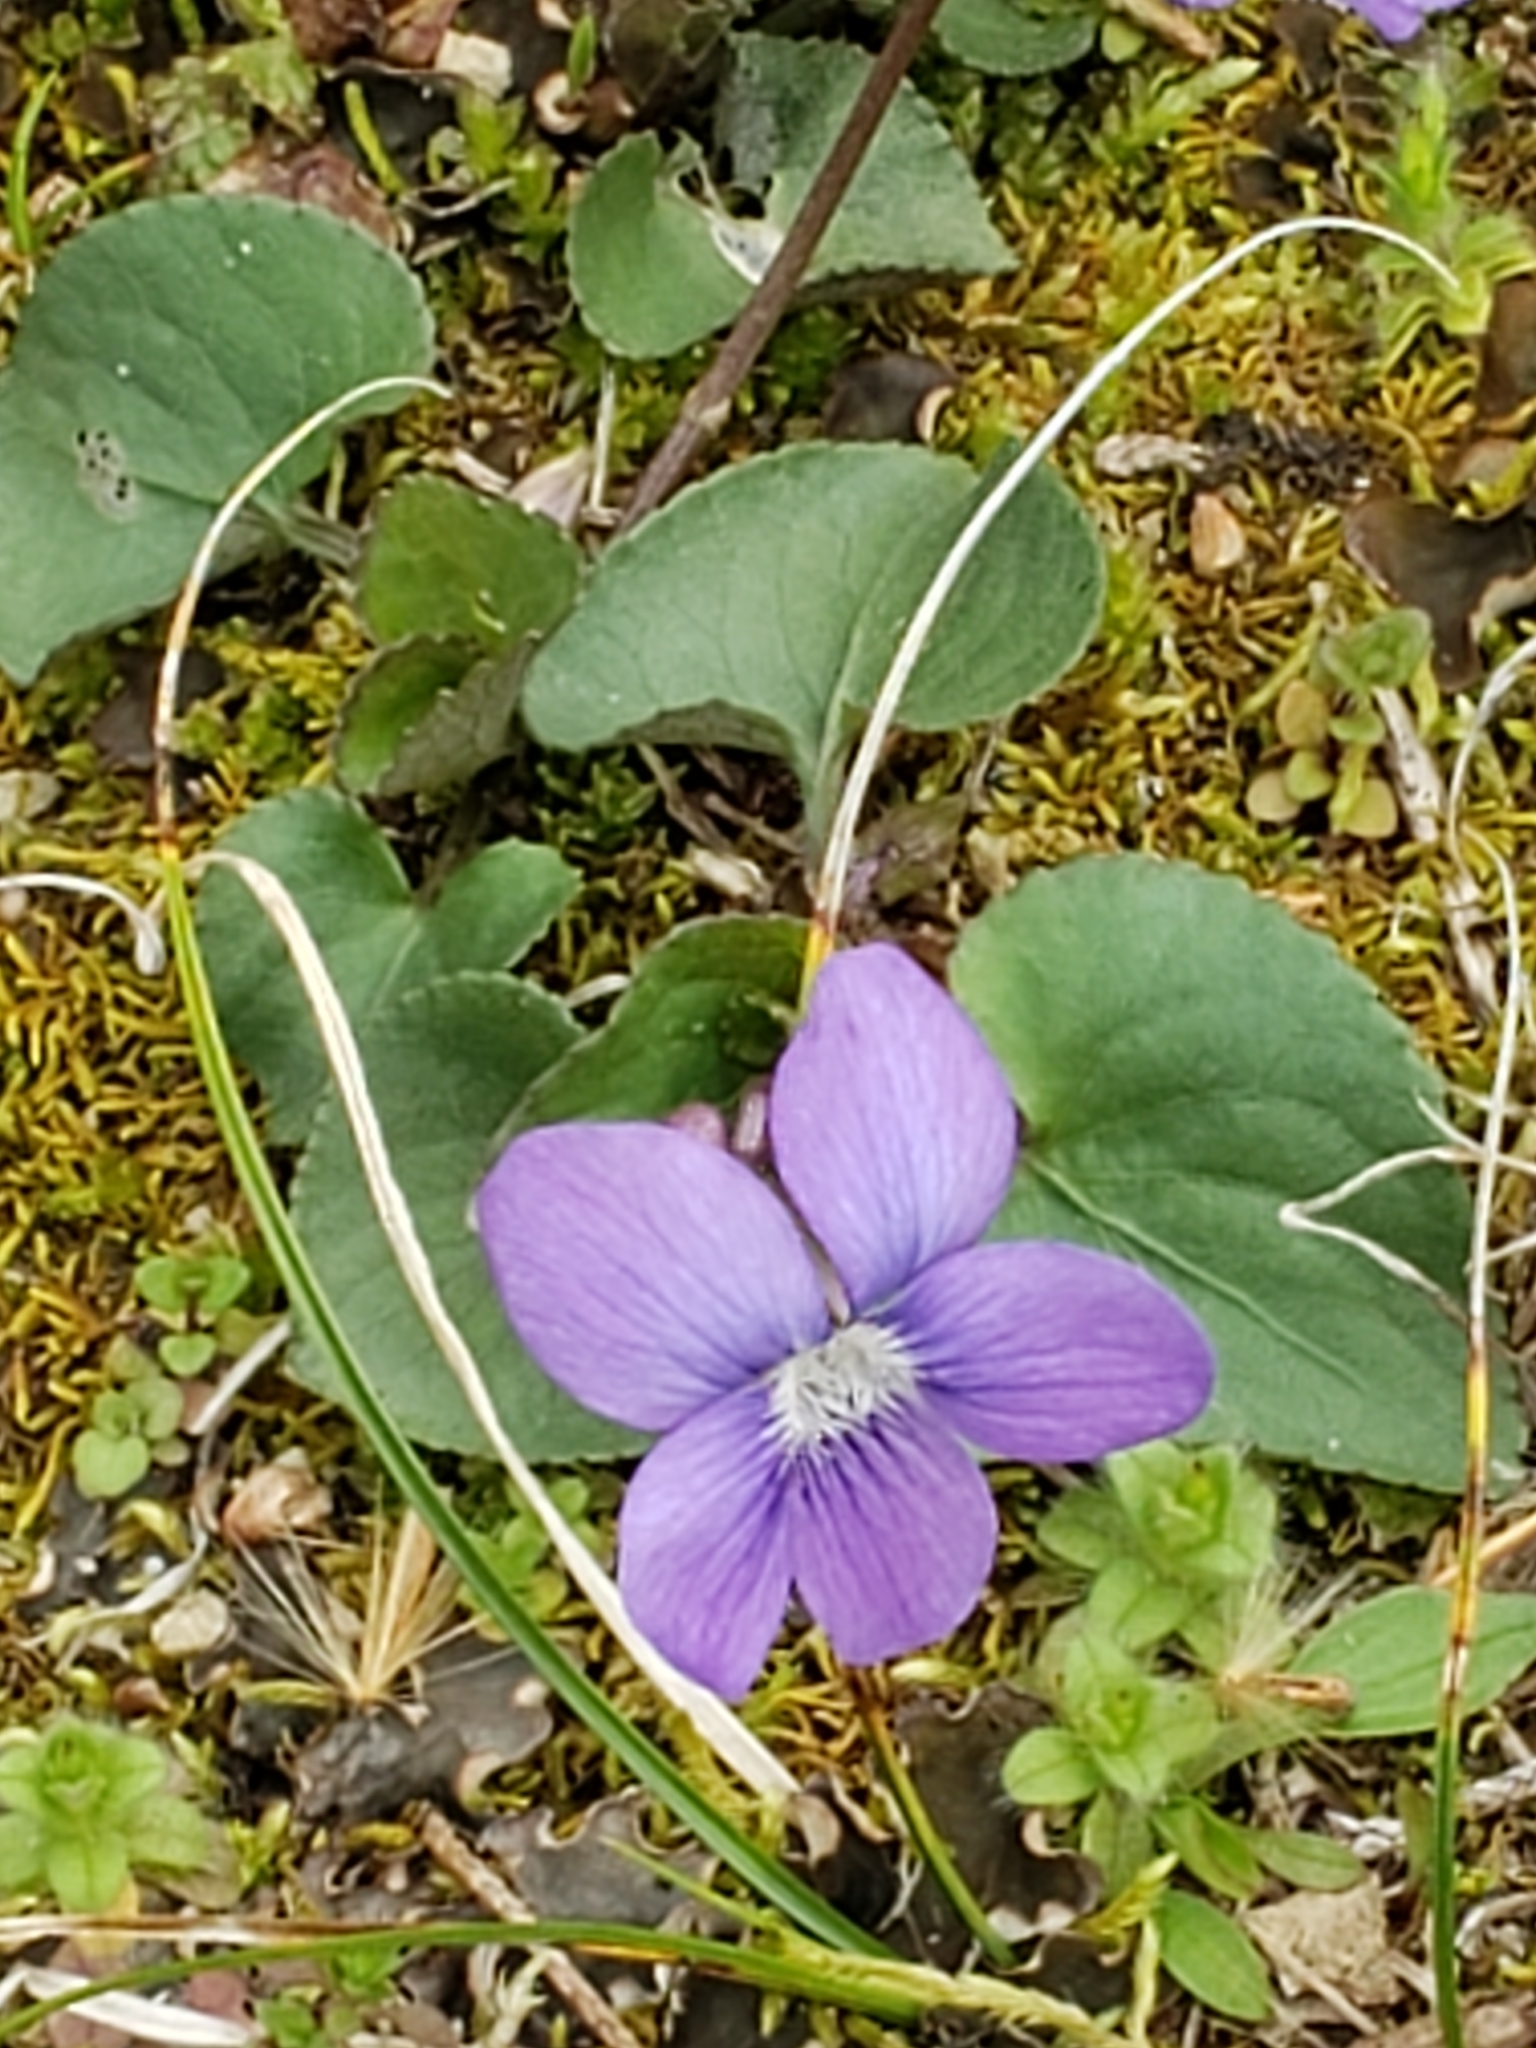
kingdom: Plantae
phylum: Tracheophyta
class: Magnoliopsida
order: Malpighiales
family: Violaceae
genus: Viola
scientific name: Viola sororia
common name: Dooryard violet
